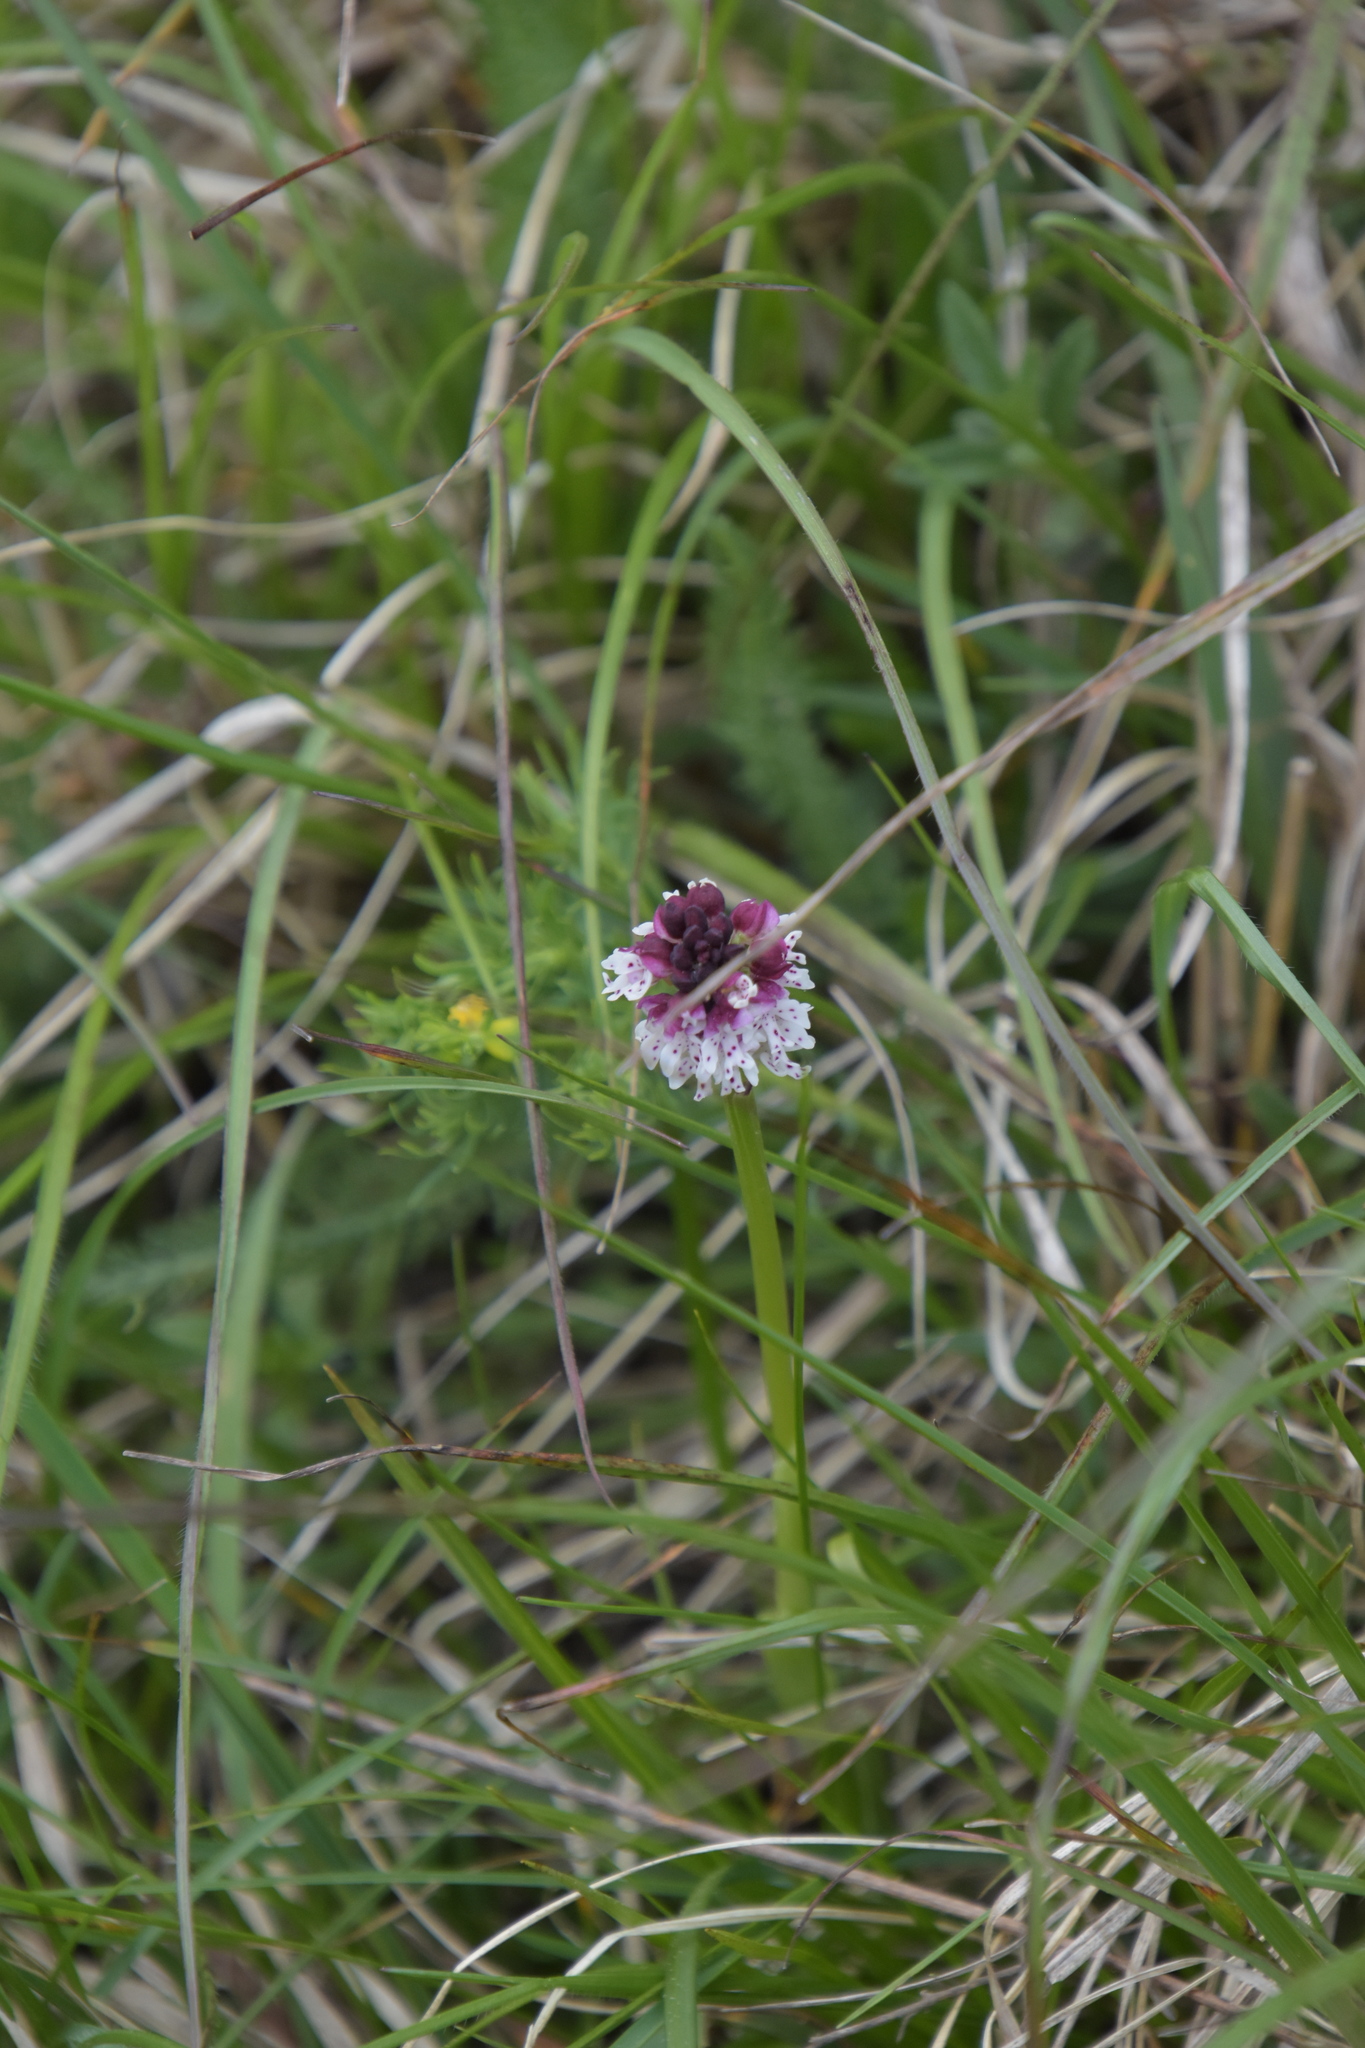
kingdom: Plantae
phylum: Tracheophyta
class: Liliopsida
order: Asparagales
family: Orchidaceae
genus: Neotinea
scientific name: Neotinea ustulata
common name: Burnt orchid
